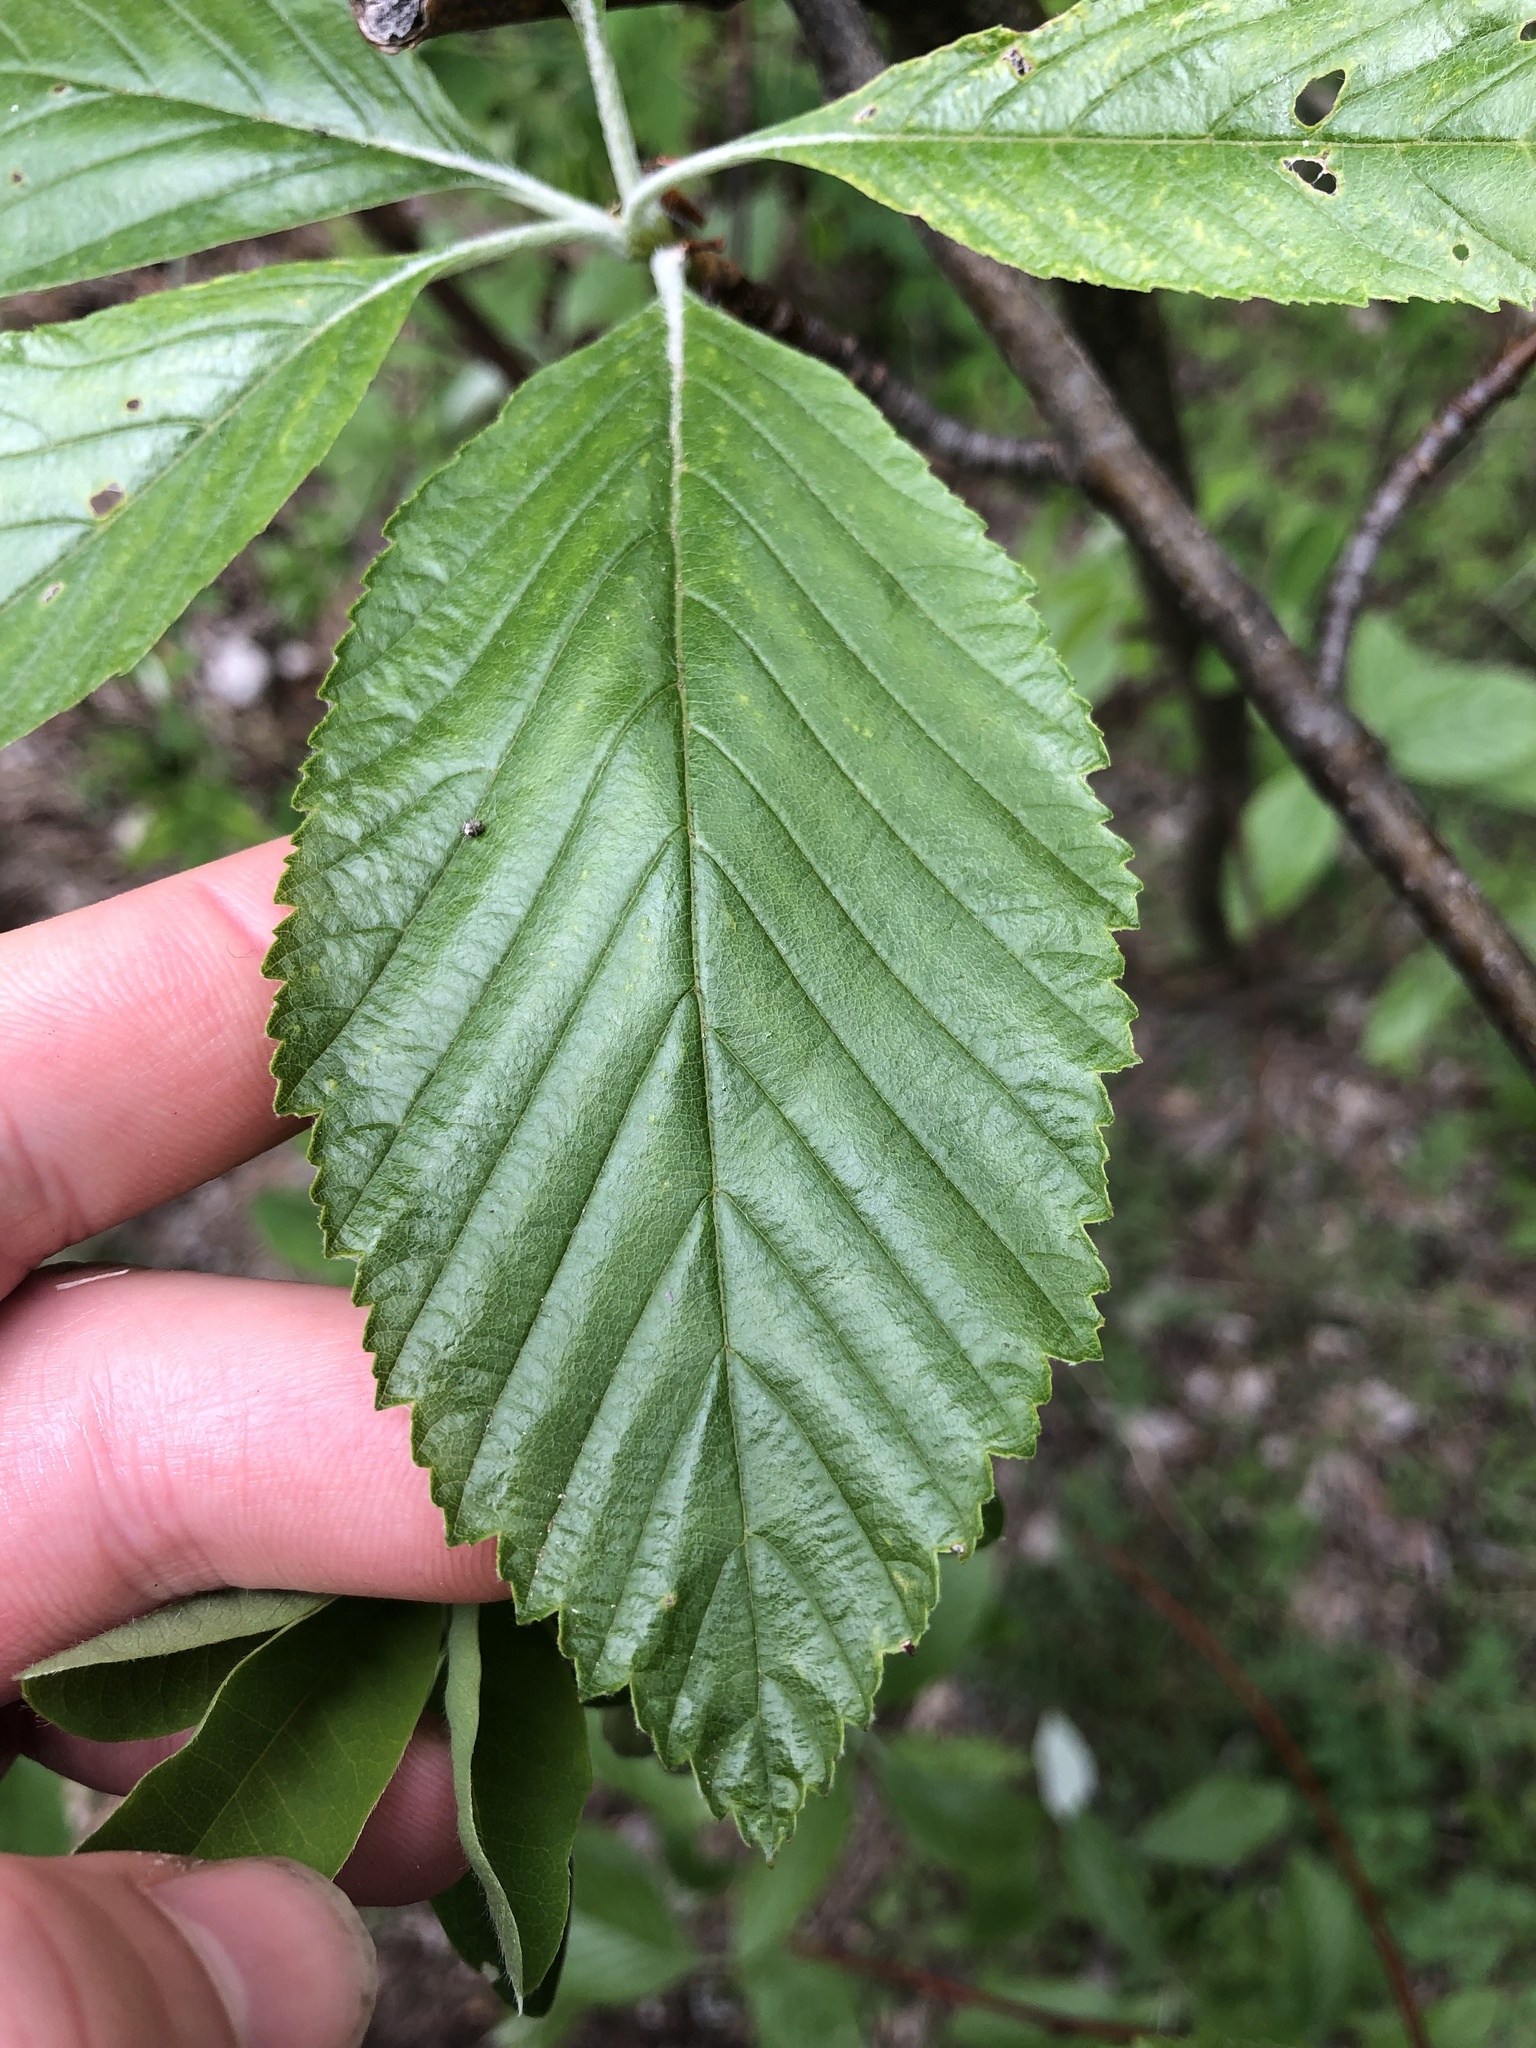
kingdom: Plantae
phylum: Tracheophyta
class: Magnoliopsida
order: Rosales
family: Rosaceae
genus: Aria
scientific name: Aria edulis
